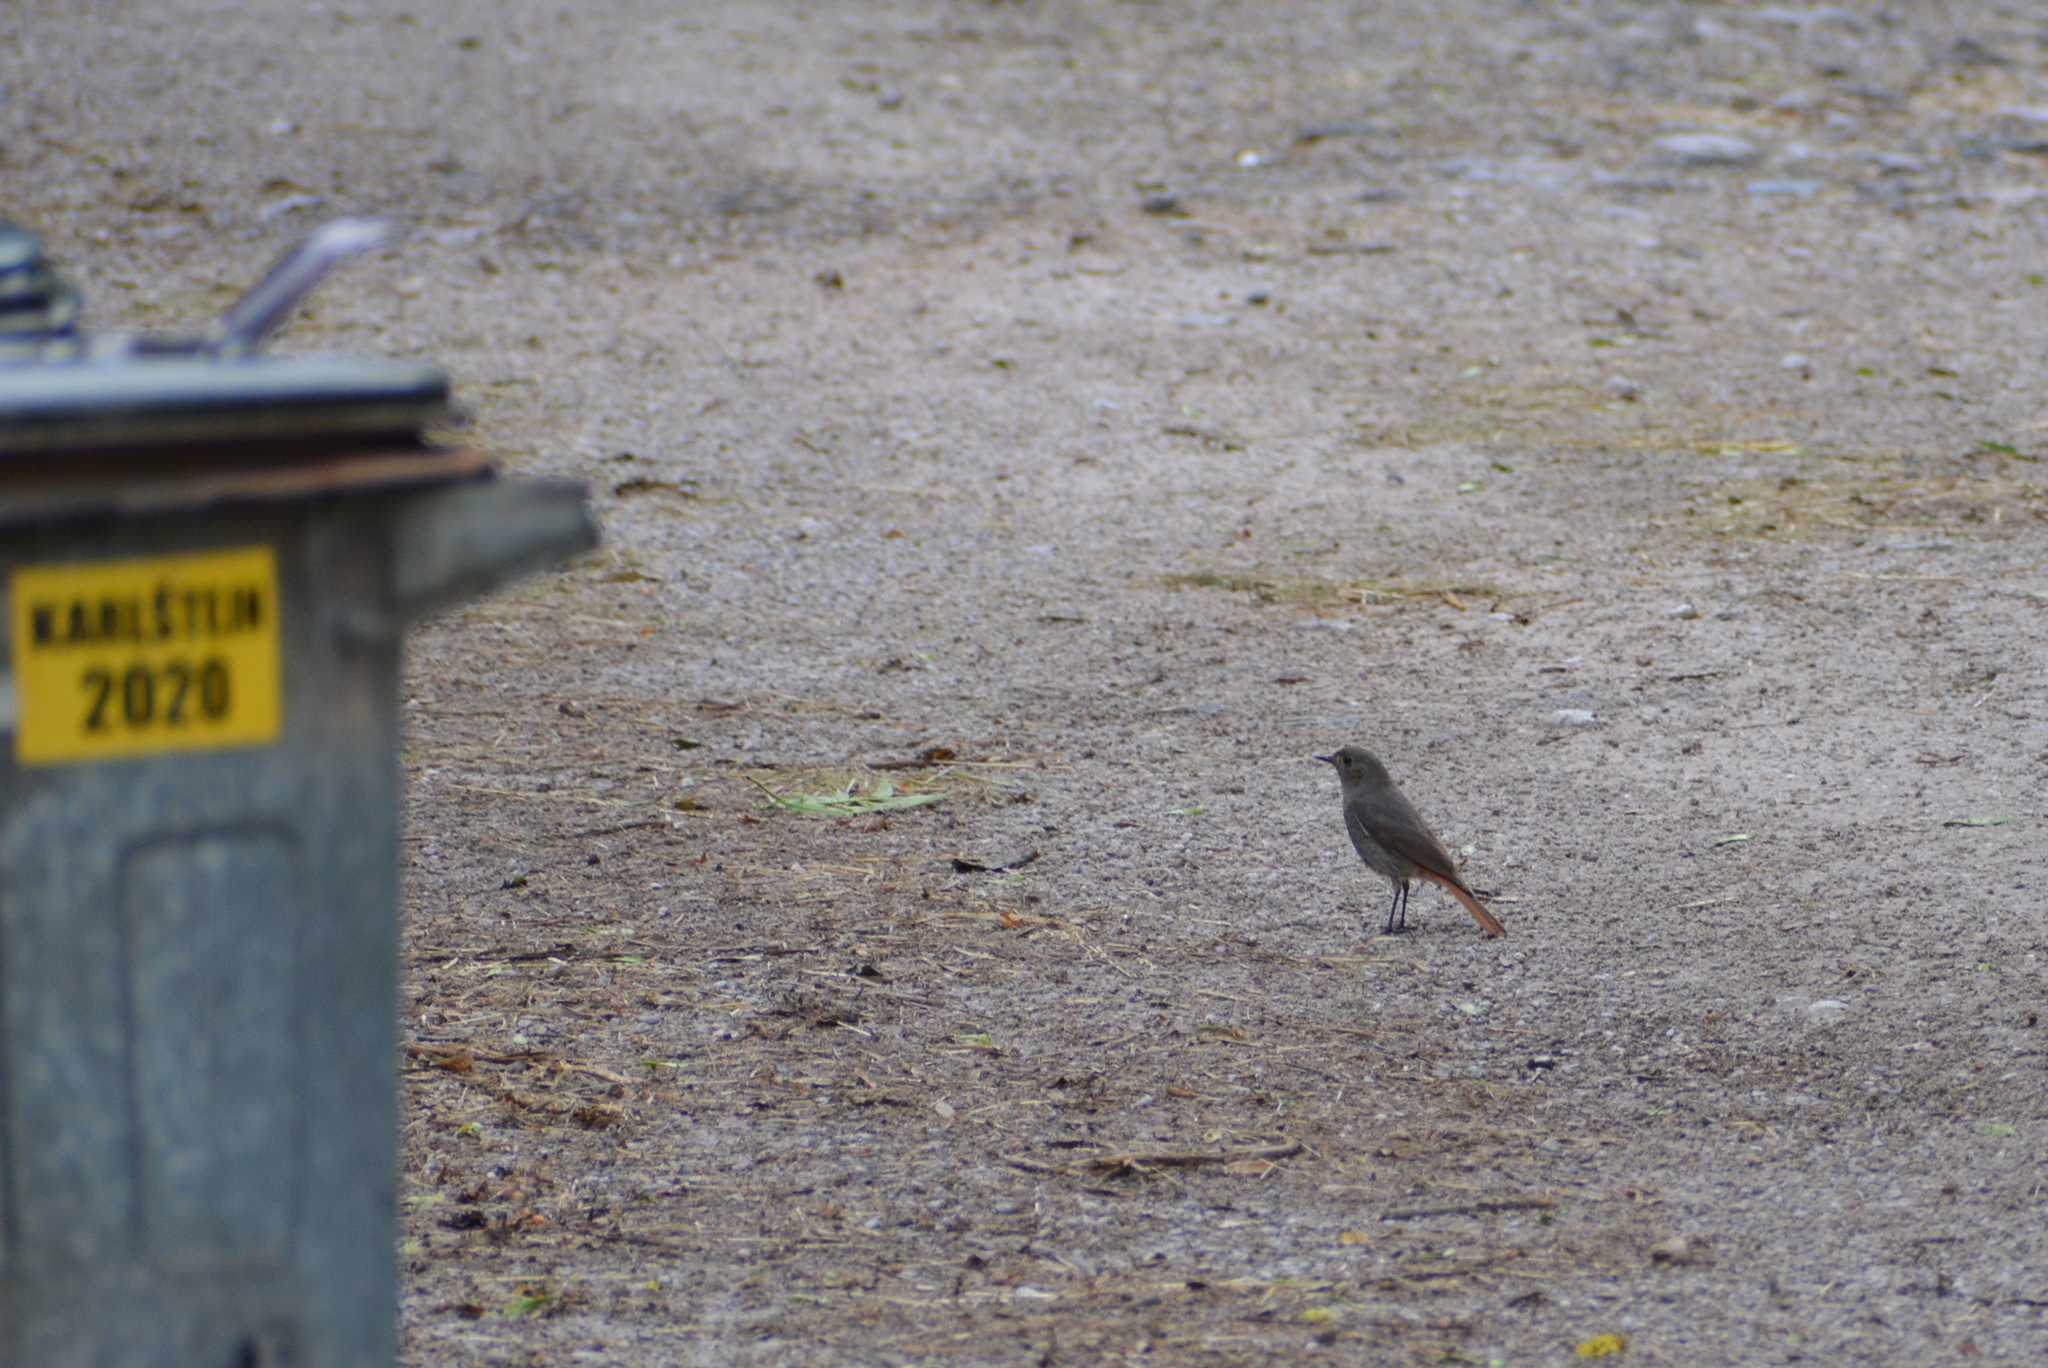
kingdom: Animalia
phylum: Chordata
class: Aves
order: Passeriformes
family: Muscicapidae
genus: Phoenicurus
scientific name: Phoenicurus ochruros
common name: Black redstart
